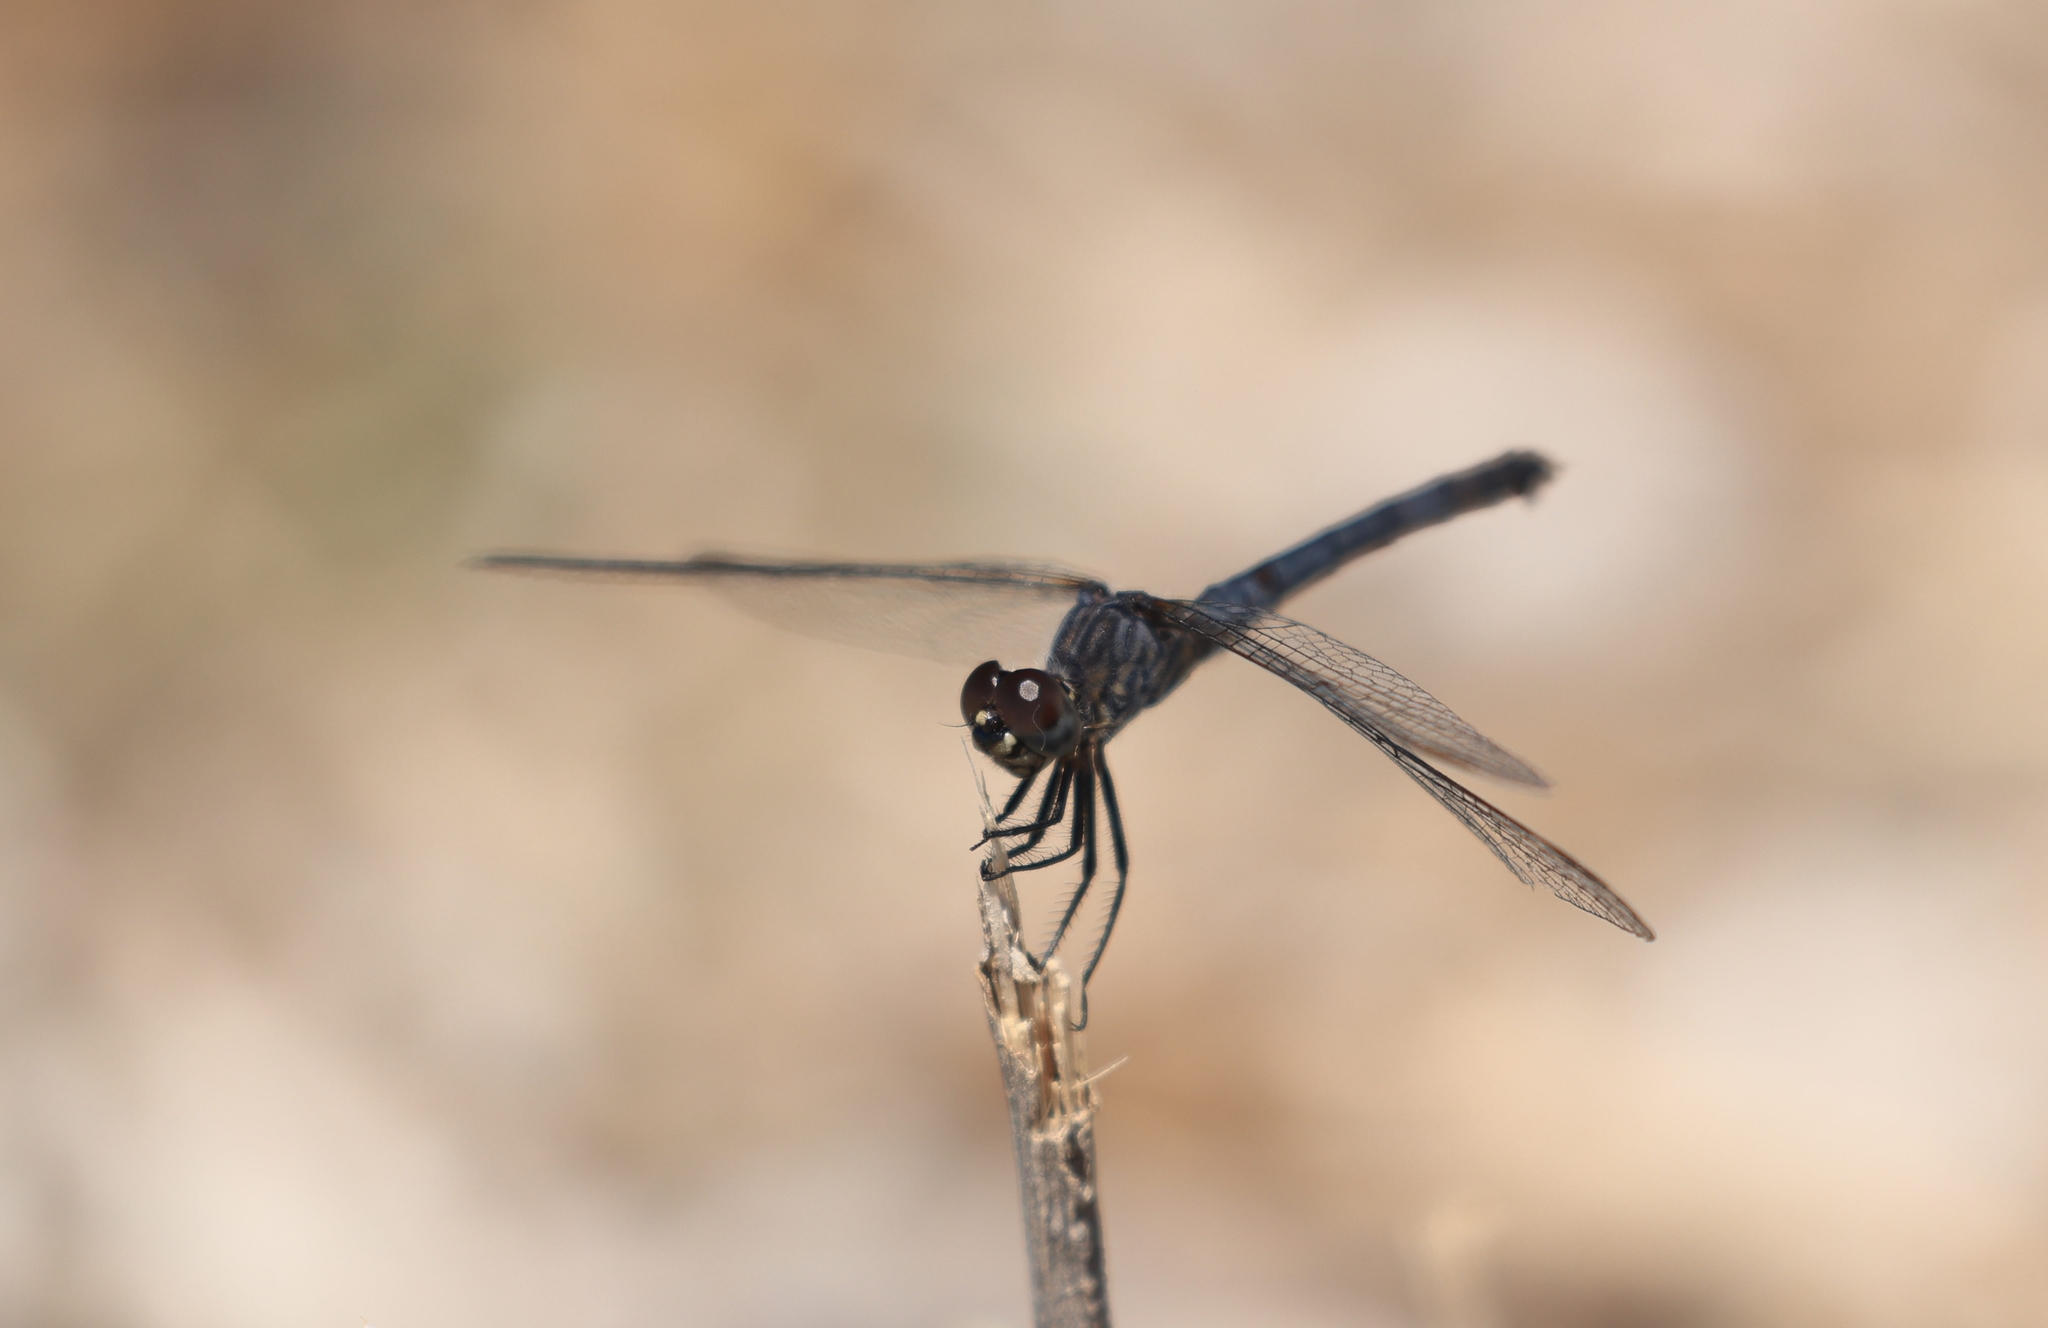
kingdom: Animalia
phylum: Arthropoda
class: Insecta
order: Odonata
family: Libellulidae
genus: Erythrodiplax
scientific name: Erythrodiplax berenice
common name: Seaside dragonlet
